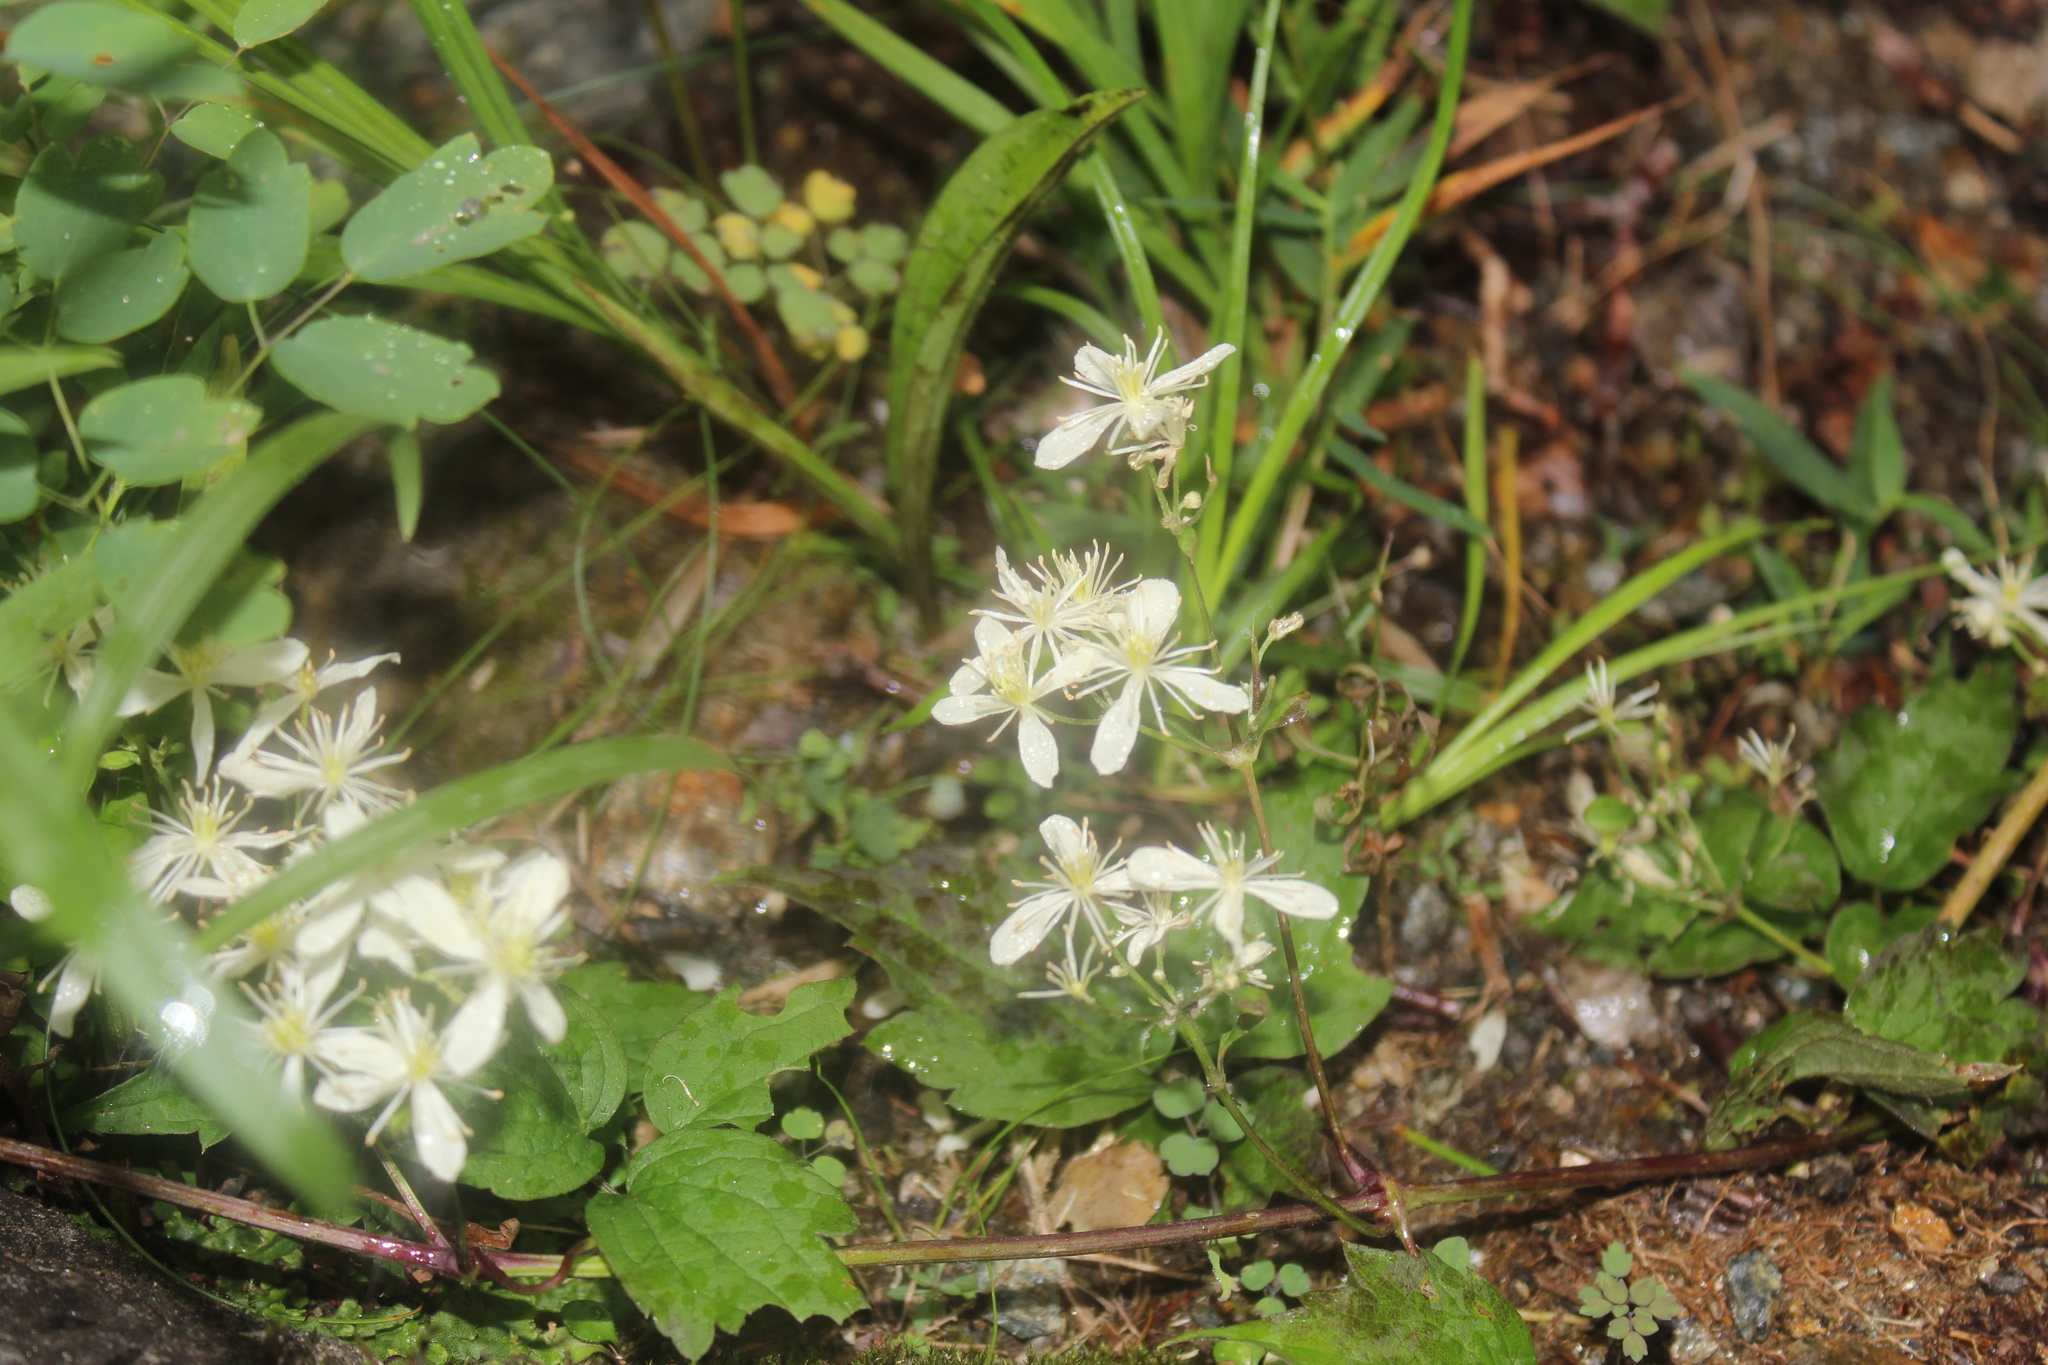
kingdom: Plantae
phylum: Tracheophyta
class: Magnoliopsida
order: Ranunculales
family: Ranunculaceae
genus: Clematis
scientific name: Clematis virginiana
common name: Virgin's-bower
